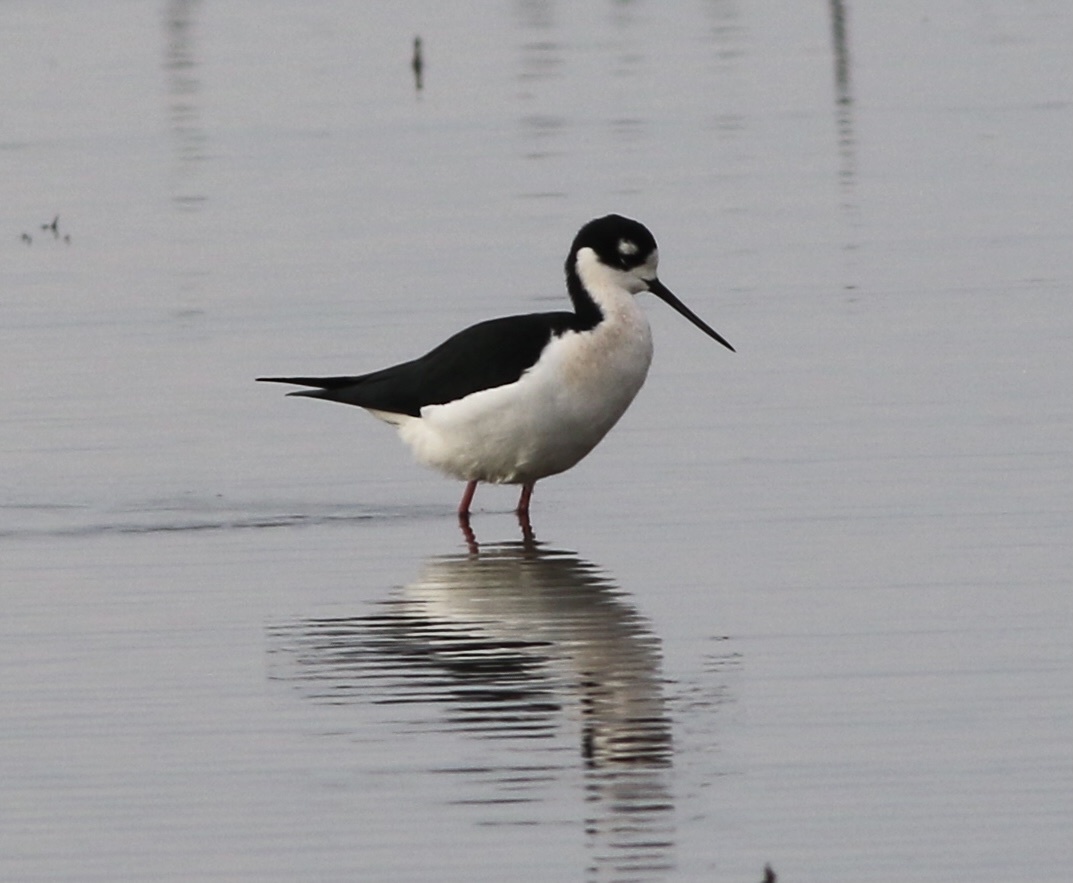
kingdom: Animalia
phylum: Chordata
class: Aves
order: Charadriiformes
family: Recurvirostridae
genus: Himantopus
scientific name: Himantopus mexicanus
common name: Black-necked stilt
